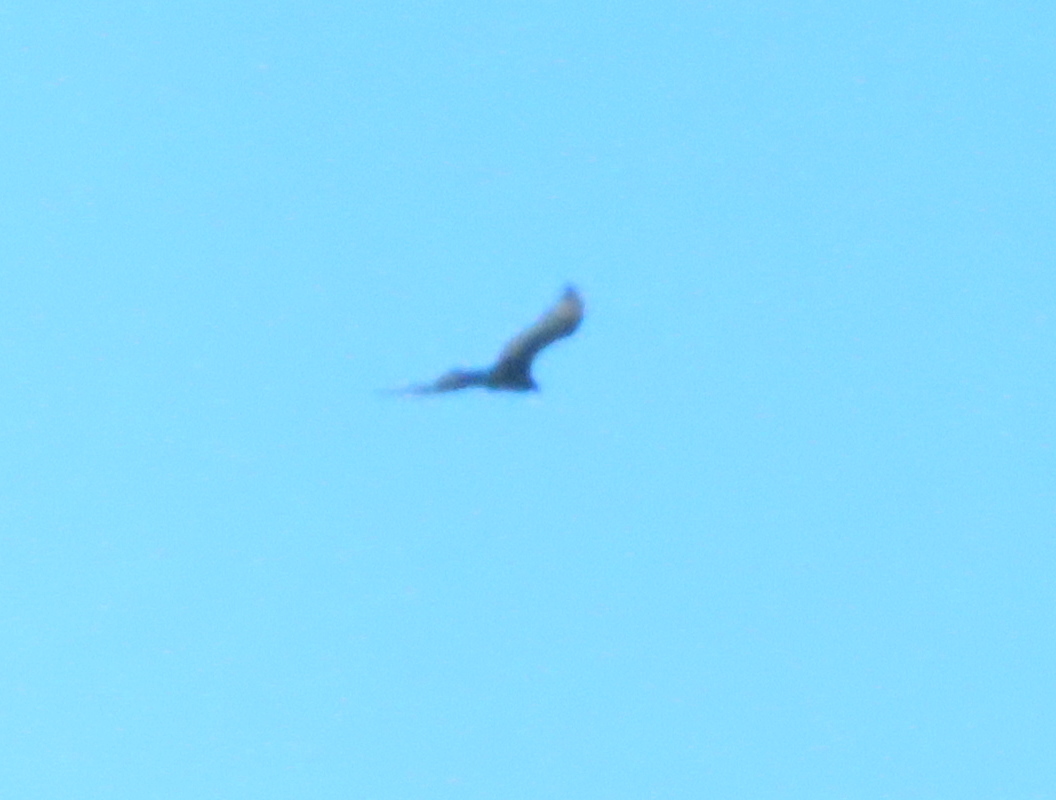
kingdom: Animalia
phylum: Chordata
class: Aves
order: Accipitriformes
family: Cathartidae
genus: Cathartes
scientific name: Cathartes aura
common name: Turkey vulture
